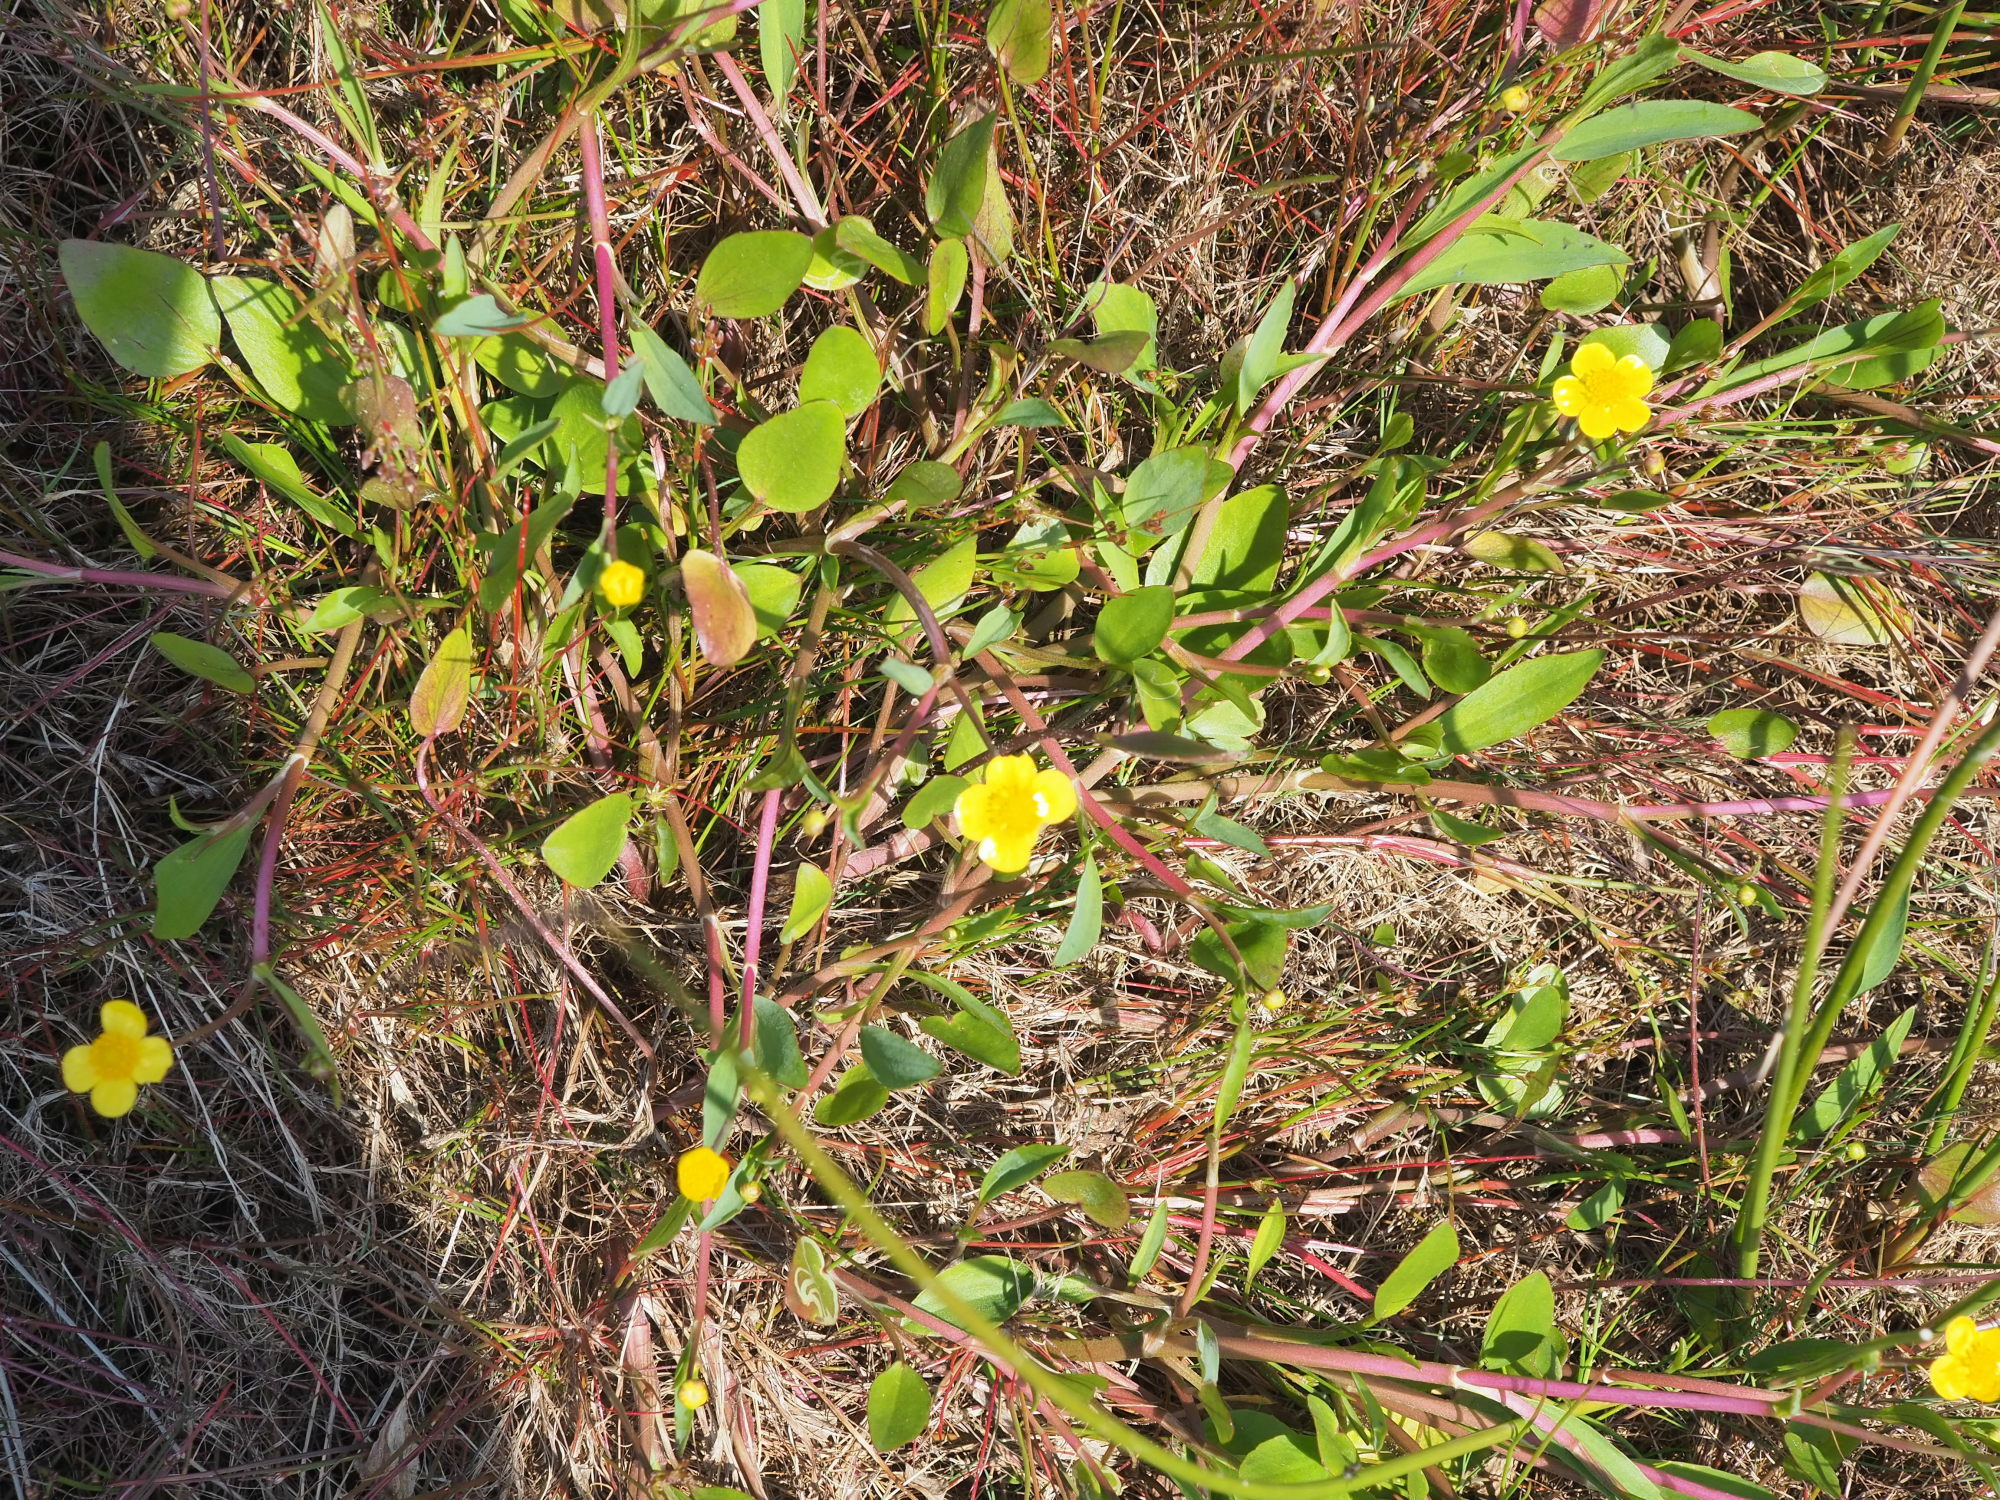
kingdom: Plantae
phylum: Tracheophyta
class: Magnoliopsida
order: Ranunculales
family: Ranunculaceae
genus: Ranunculus
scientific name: Ranunculus flammula
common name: Lesser spearwort
